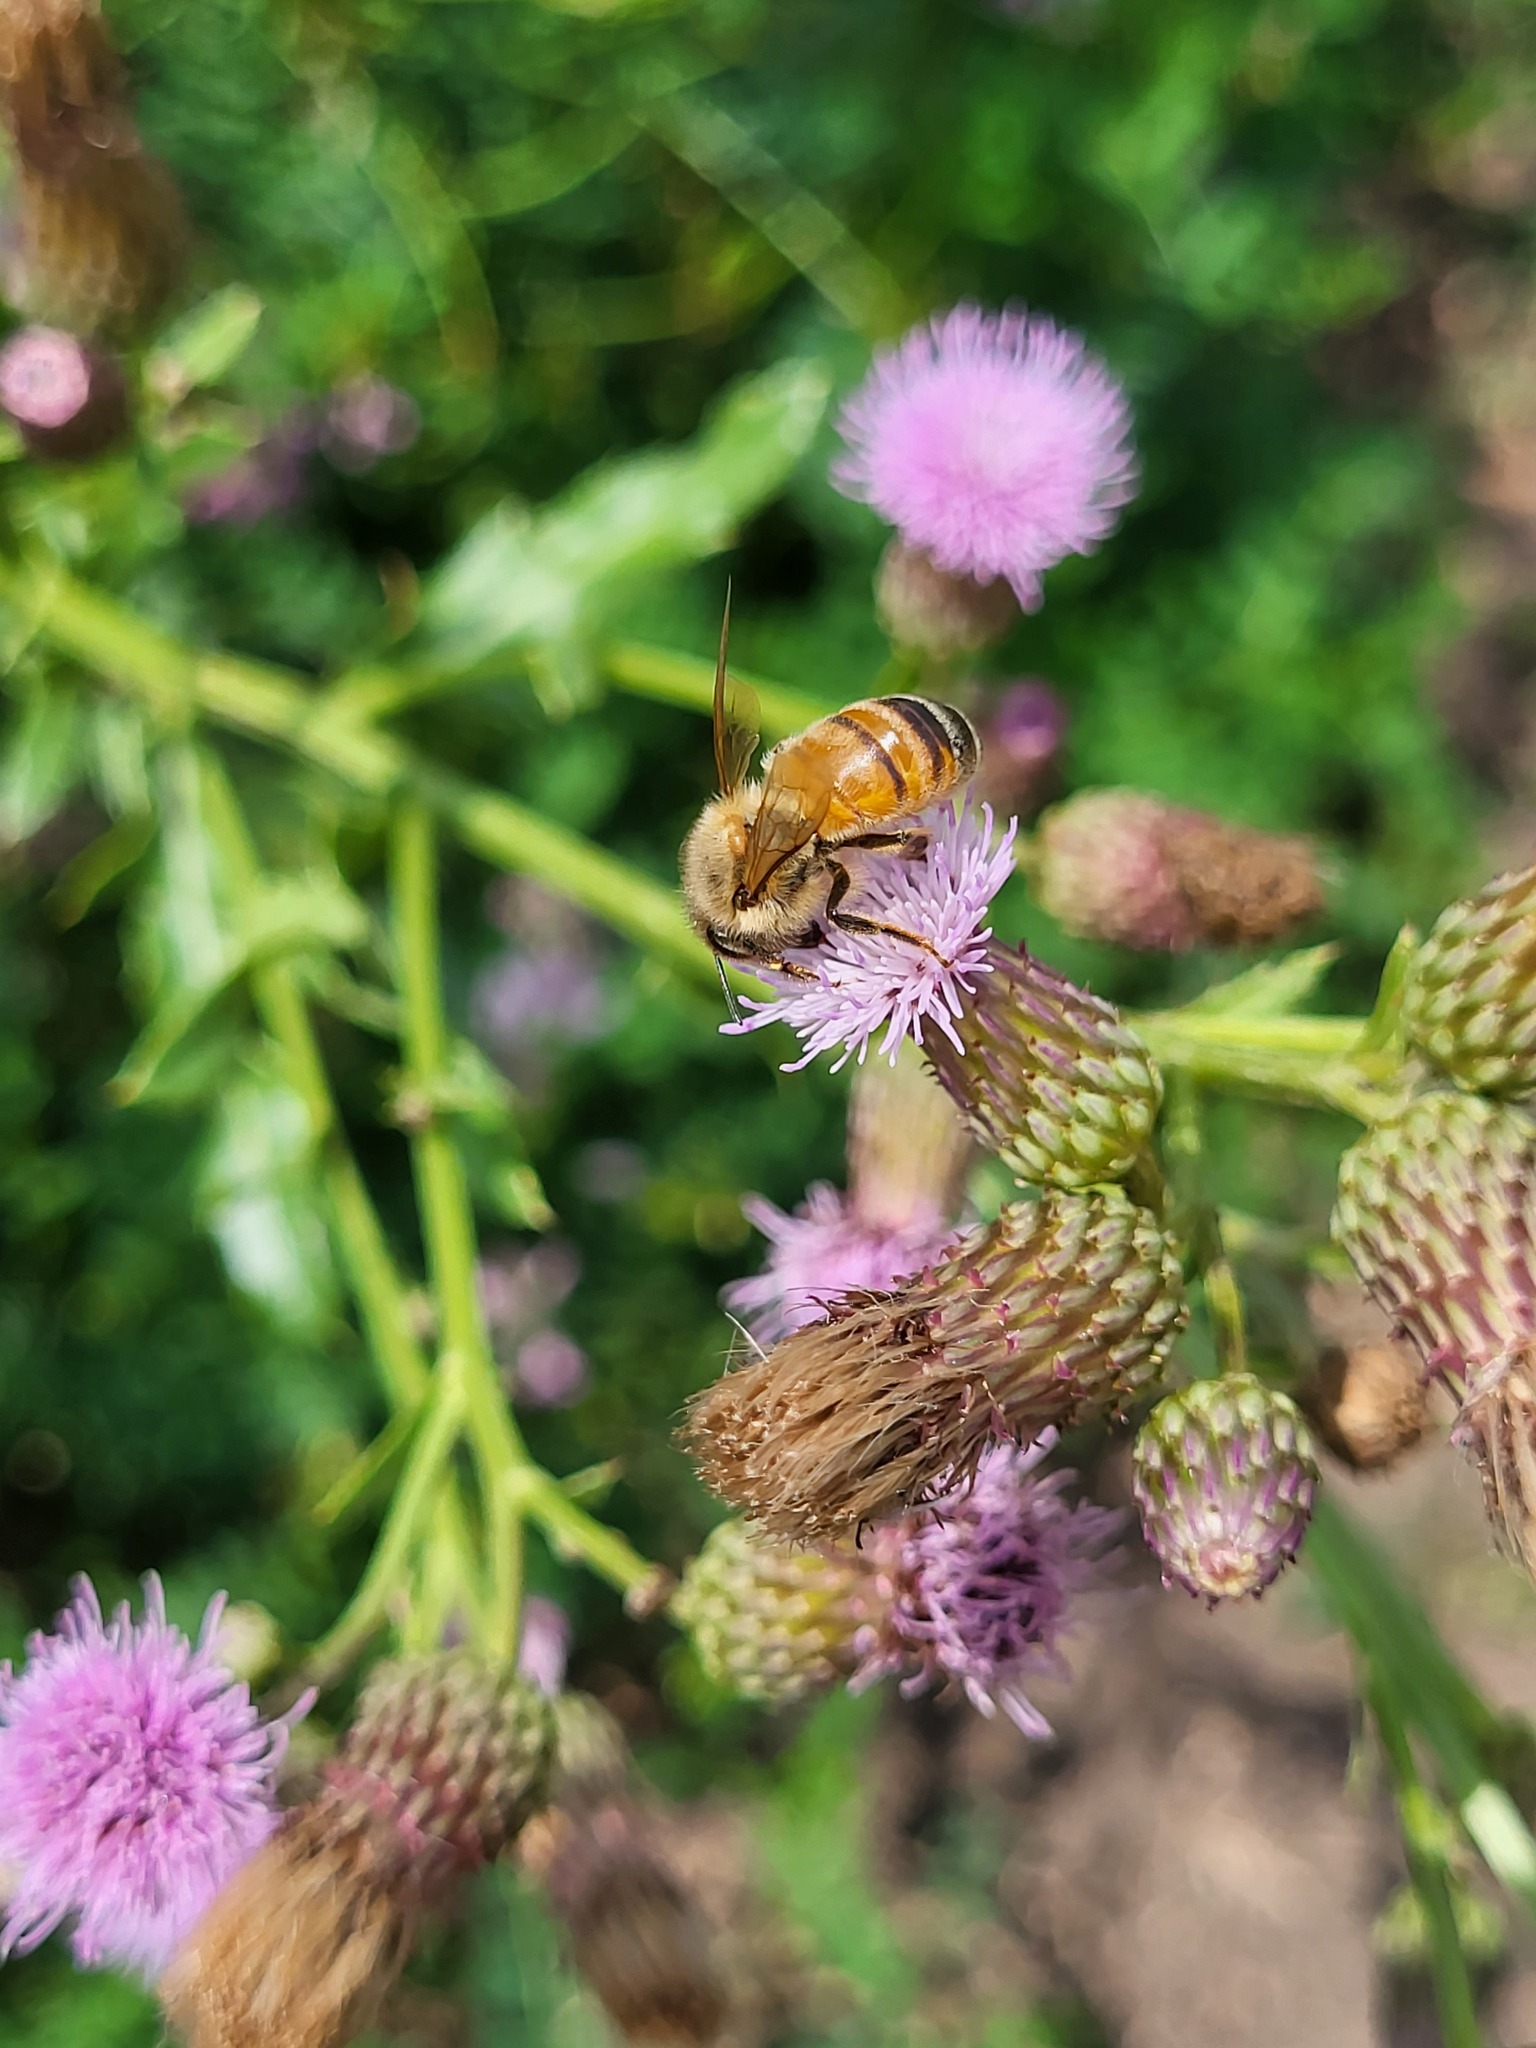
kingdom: Animalia
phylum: Arthropoda
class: Insecta
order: Hymenoptera
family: Apidae
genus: Apis
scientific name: Apis mellifera
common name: Honey bee
